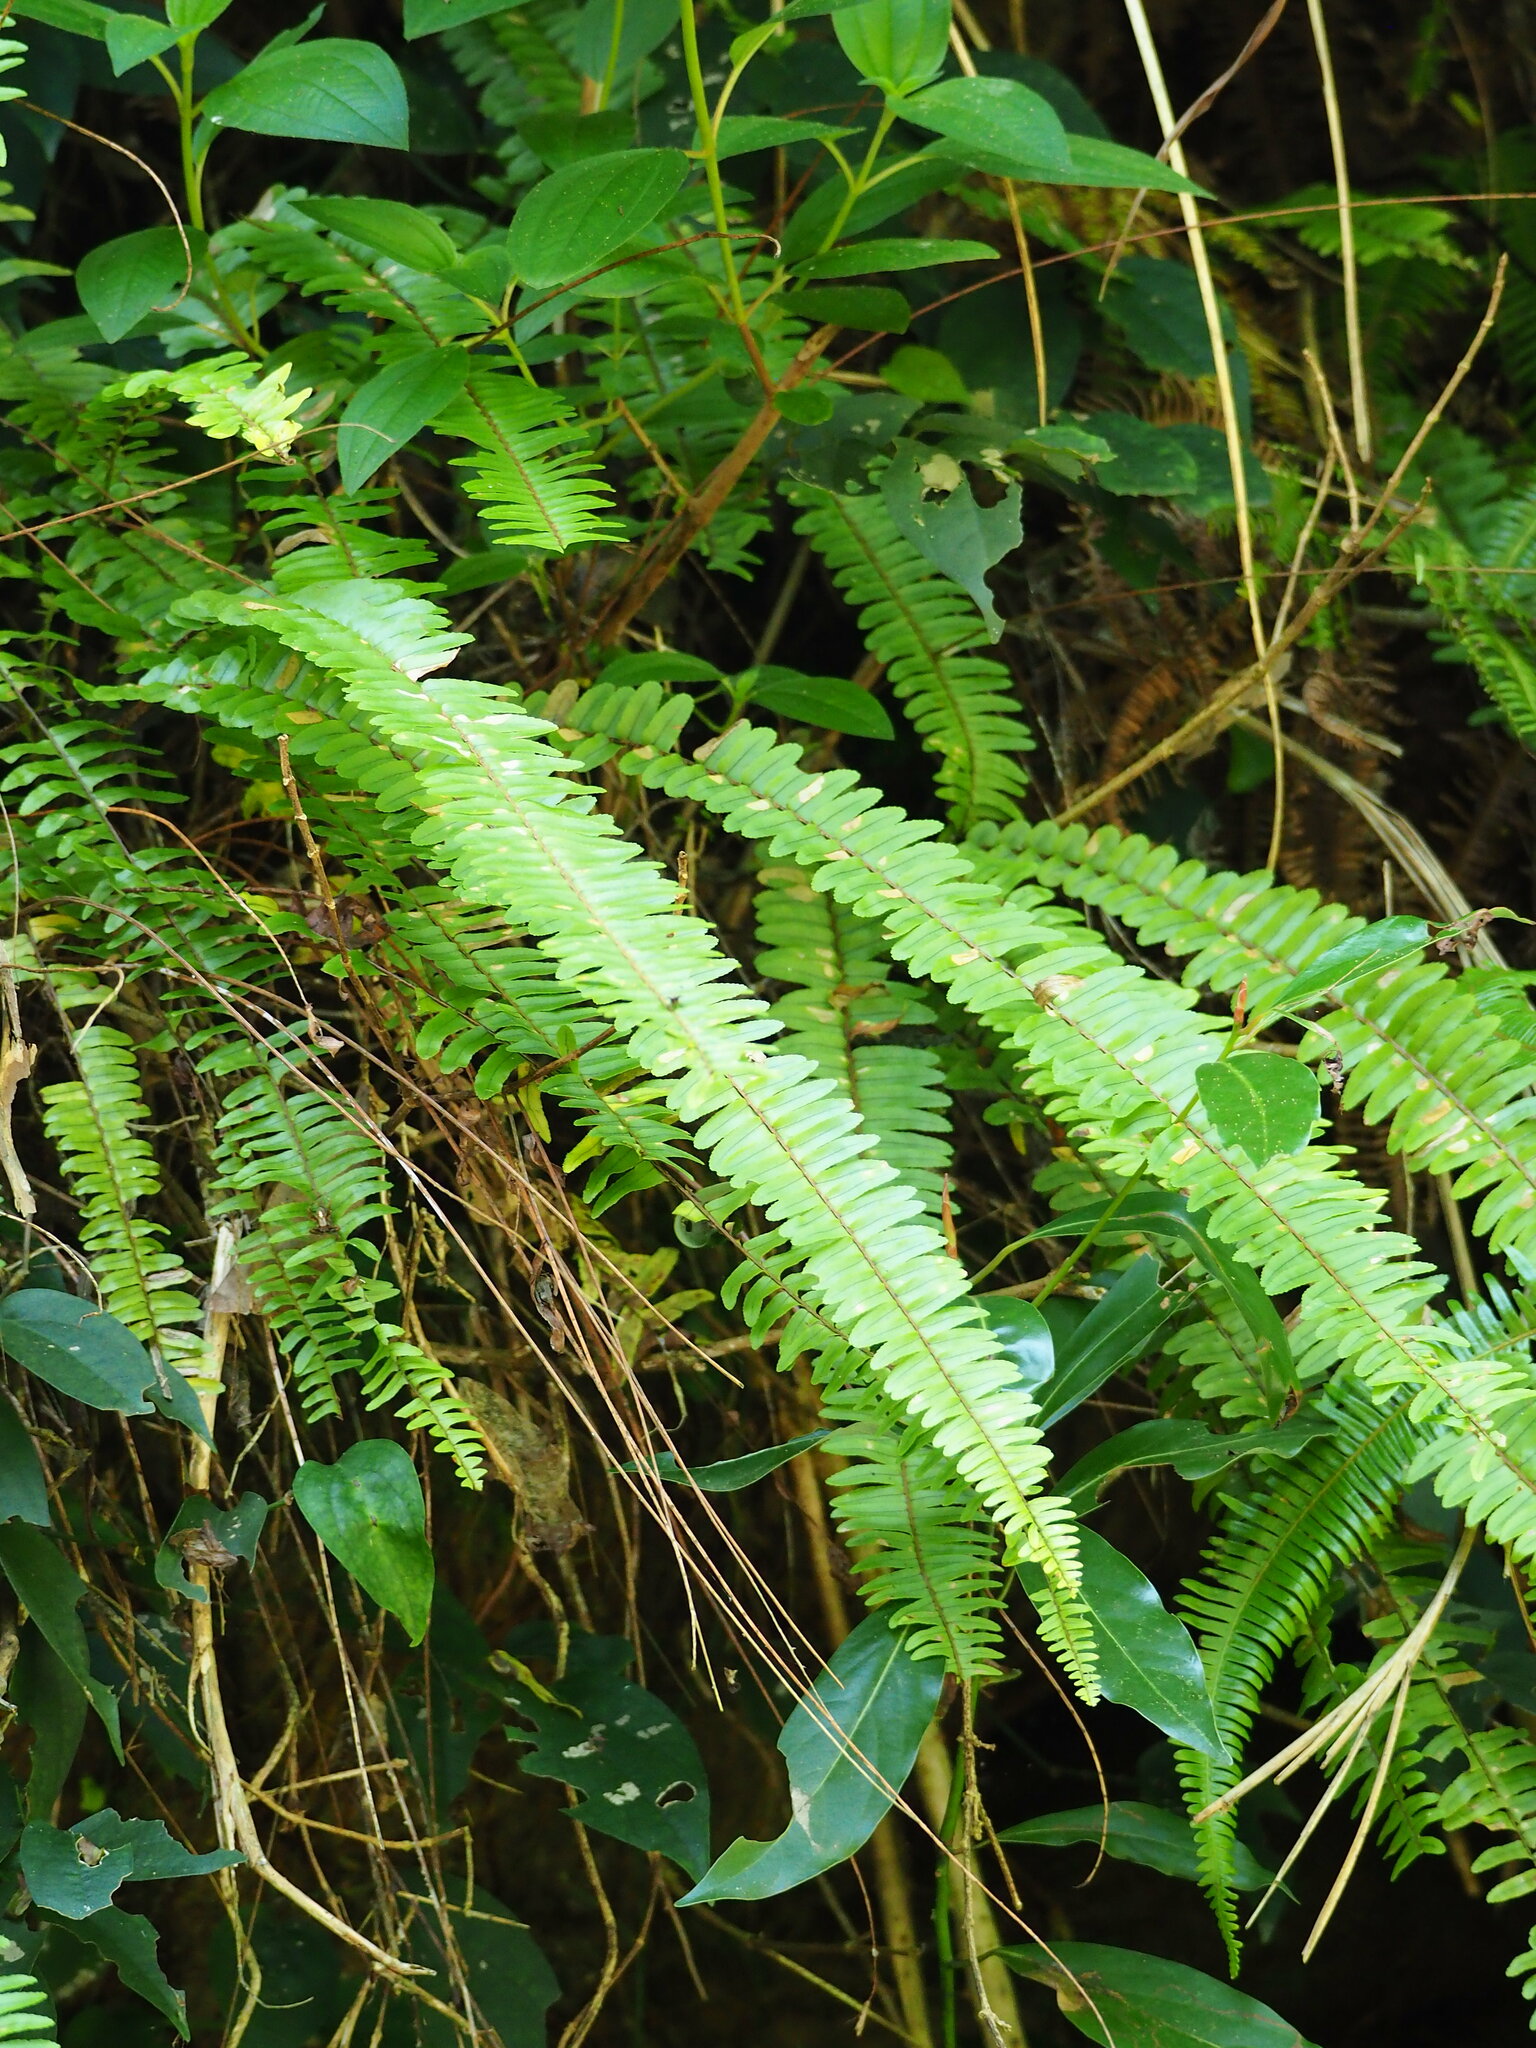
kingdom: Plantae
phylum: Tracheophyta
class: Polypodiopsida
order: Polypodiales
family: Nephrolepidaceae
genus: Nephrolepis
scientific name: Nephrolepis cordifolia
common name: Narrow swordfern
